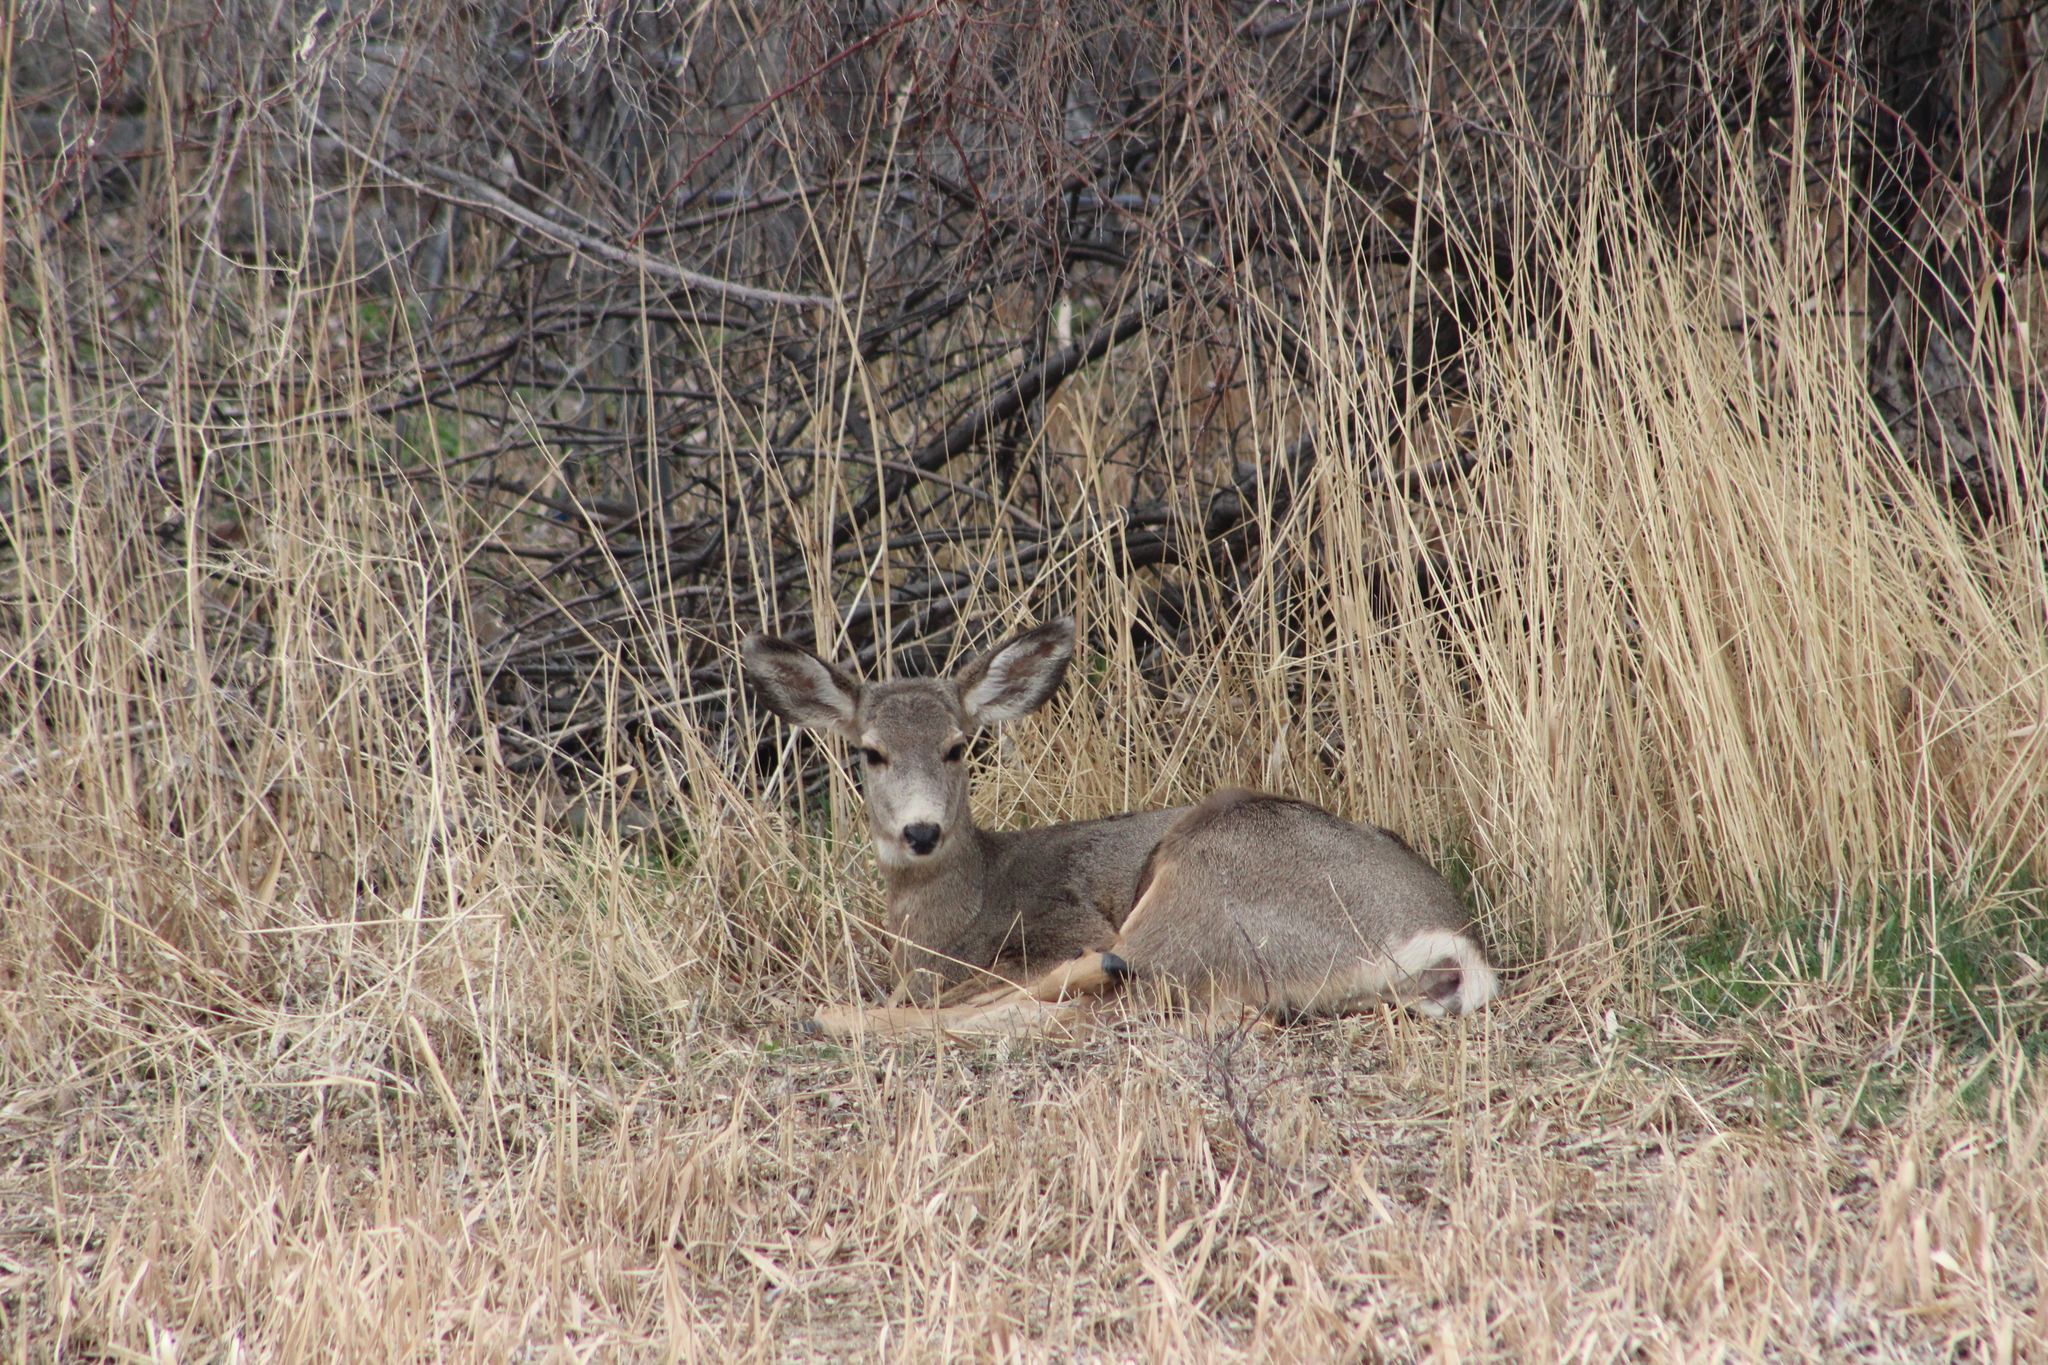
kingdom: Animalia
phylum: Chordata
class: Mammalia
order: Artiodactyla
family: Cervidae
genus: Odocoileus
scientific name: Odocoileus hemionus
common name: Mule deer
